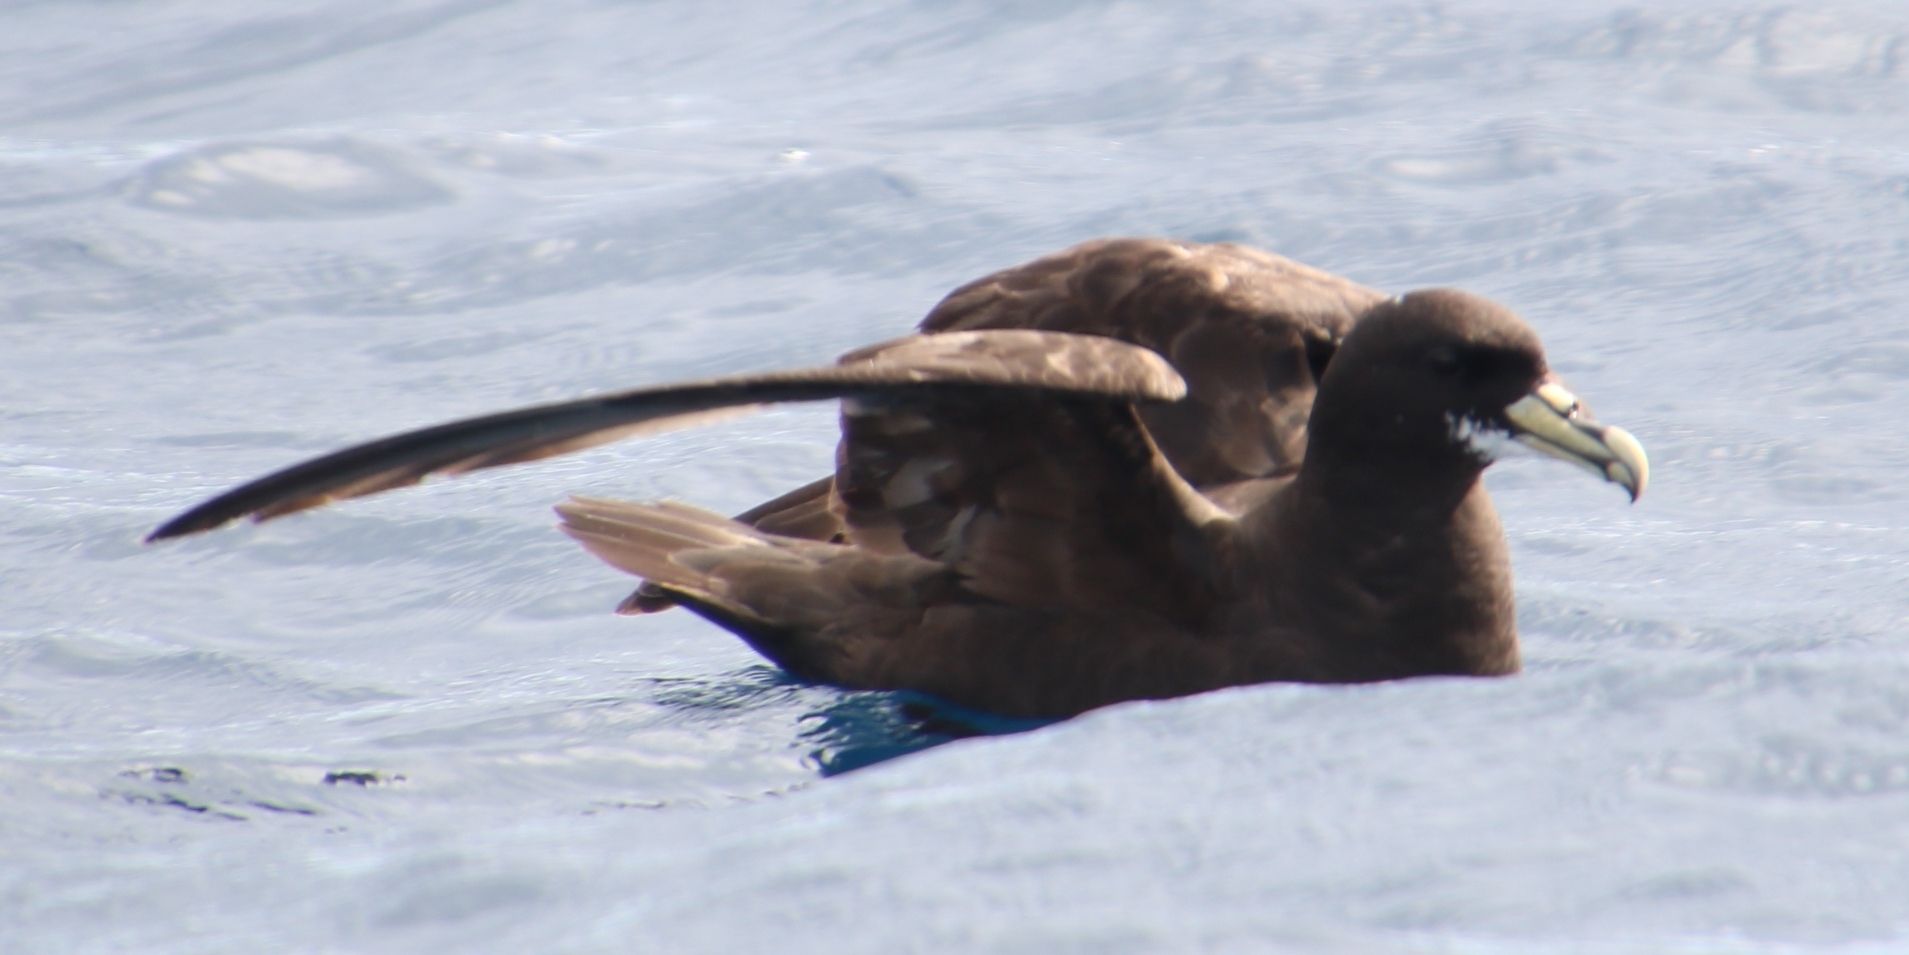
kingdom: Animalia
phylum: Chordata
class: Aves
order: Procellariiformes
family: Procellariidae
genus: Procellaria
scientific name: Procellaria aequinoctialis
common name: White-chinned petrel
